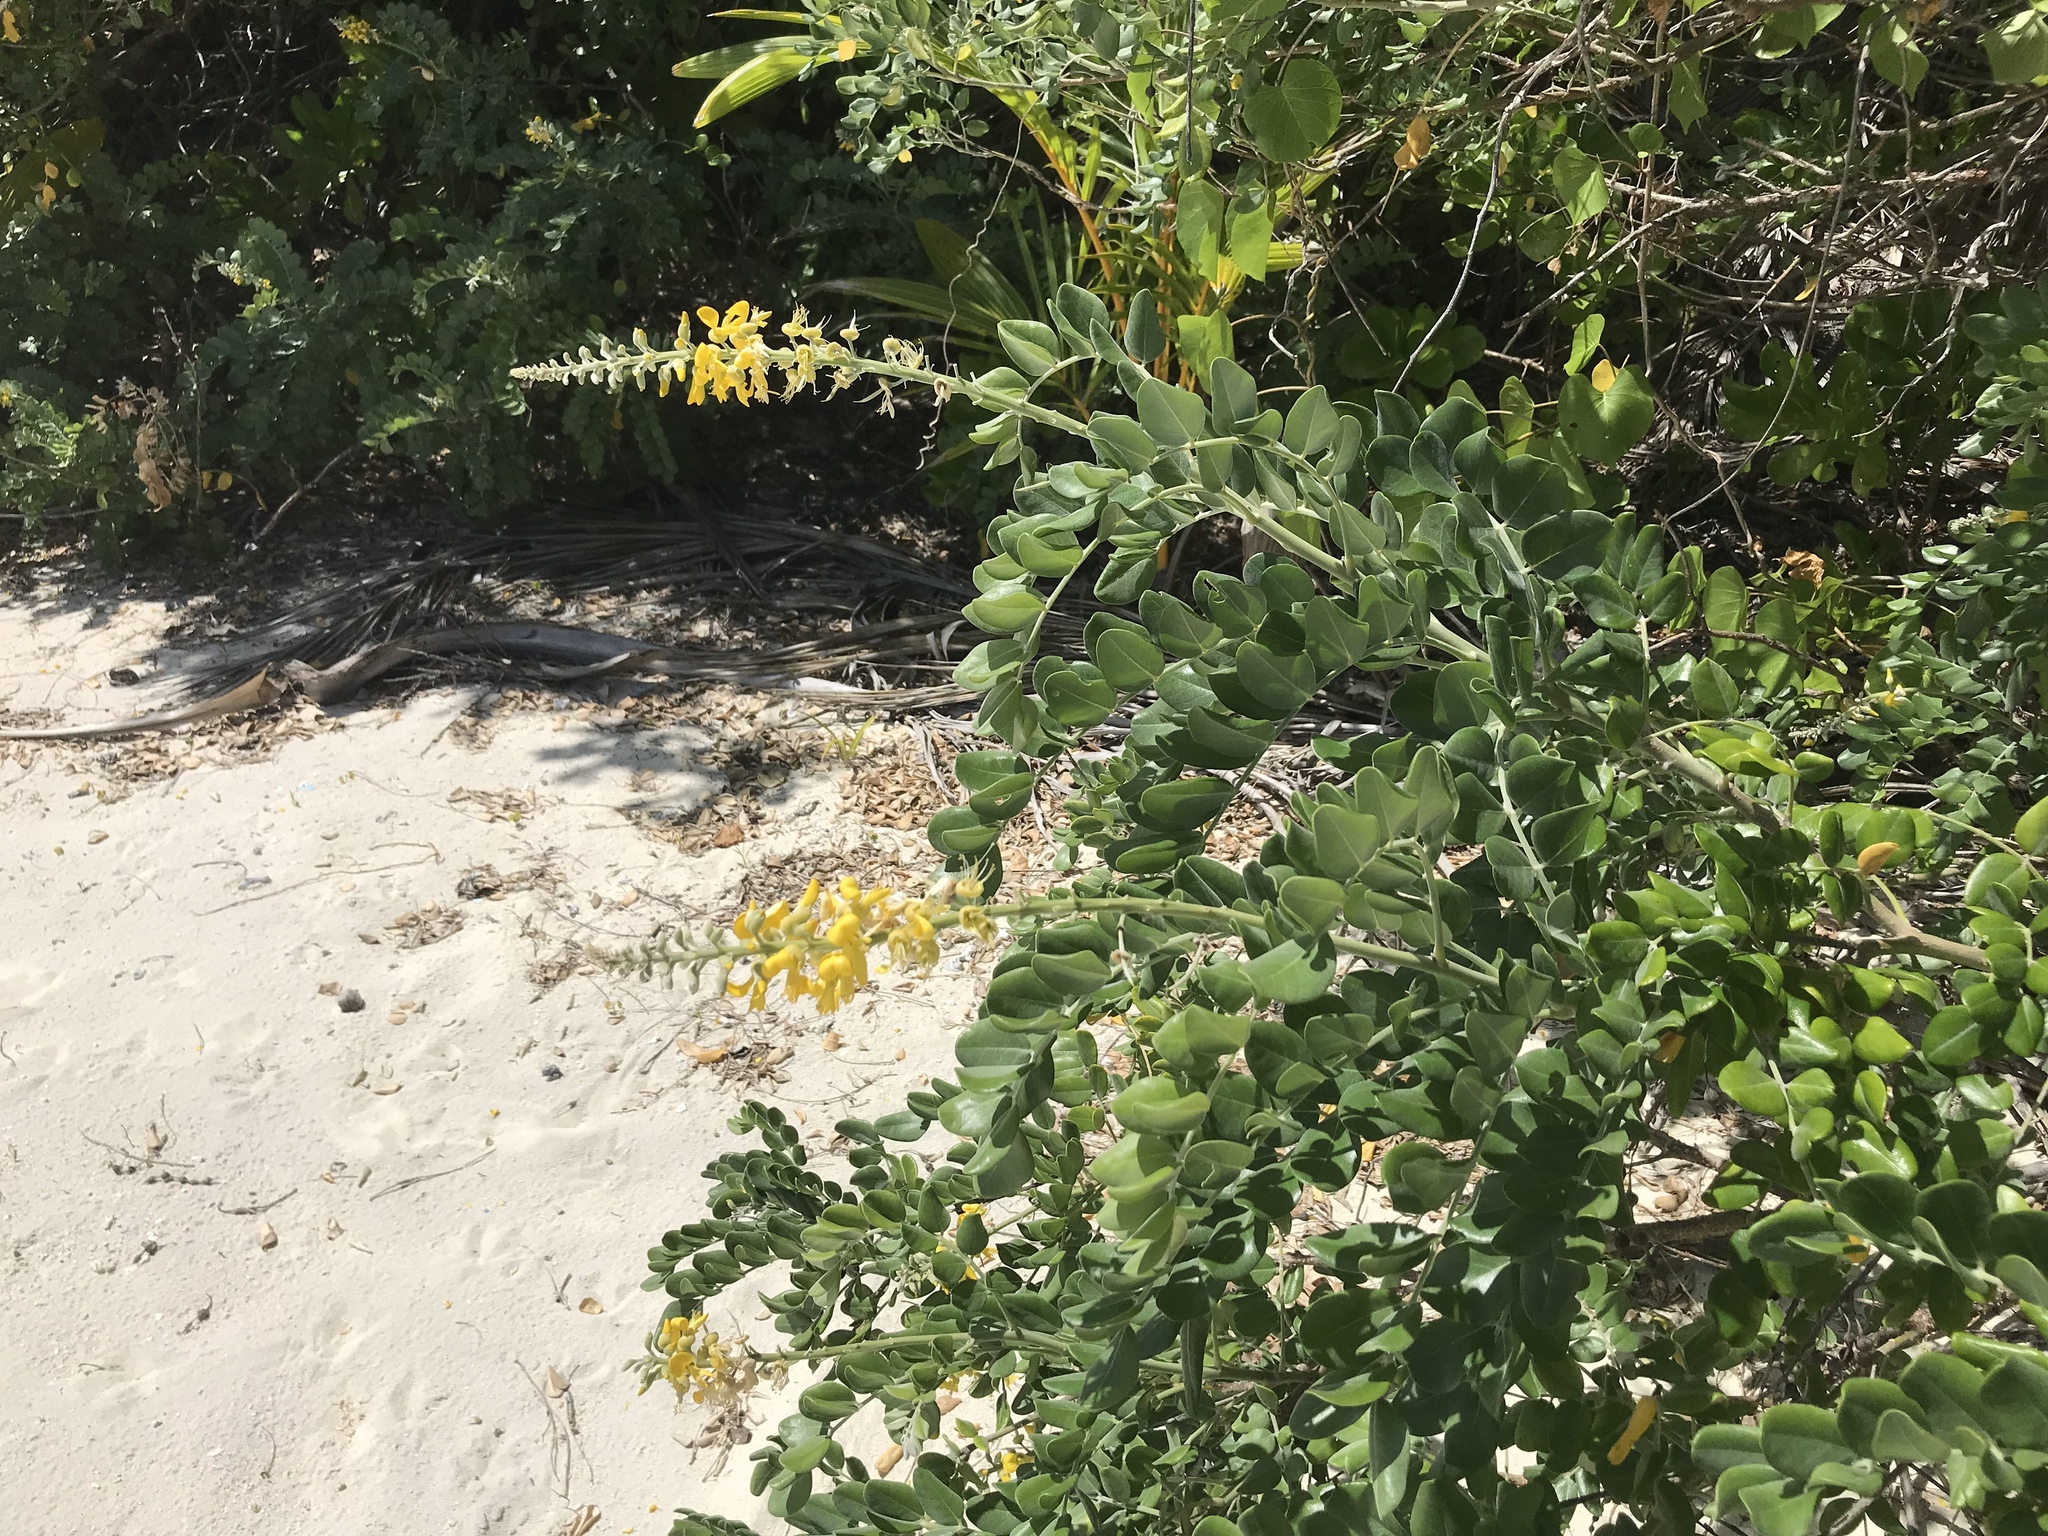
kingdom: Plantae
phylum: Tracheophyta
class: Magnoliopsida
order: Fabales
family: Fabaceae
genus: Sophora
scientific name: Sophora tomentosa
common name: Yellow necklacepod
